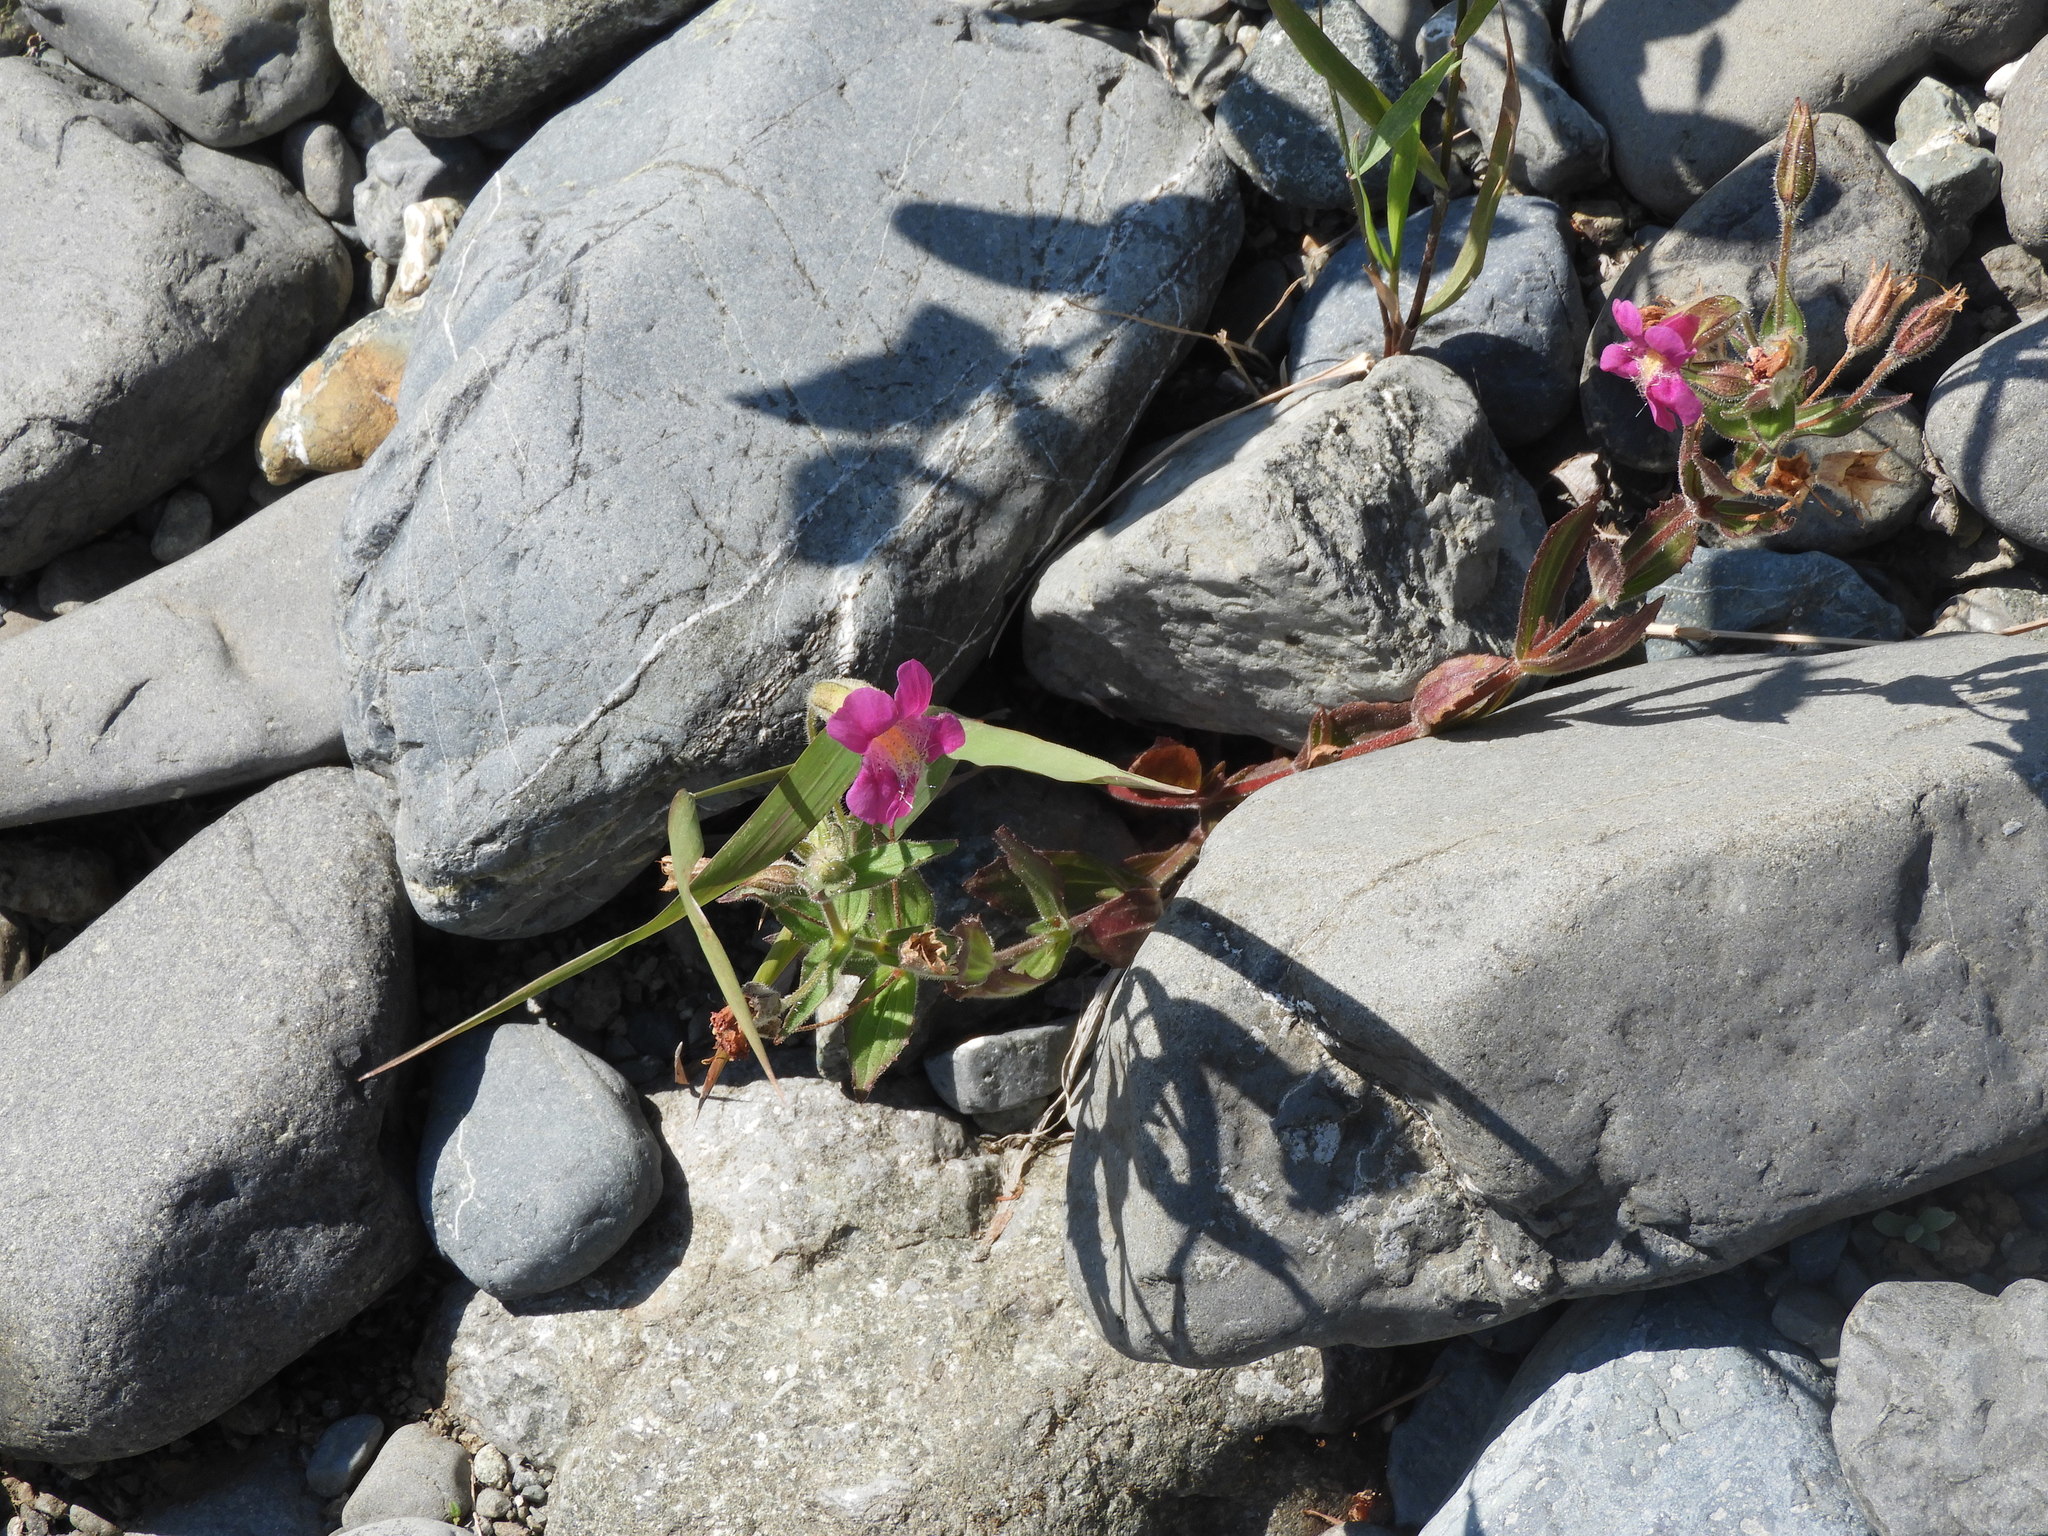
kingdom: Plantae
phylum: Tracheophyta
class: Magnoliopsida
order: Lamiales
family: Phrymaceae
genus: Erythranthe
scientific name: Erythranthe lewisii
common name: Lewis's monkey-flower
